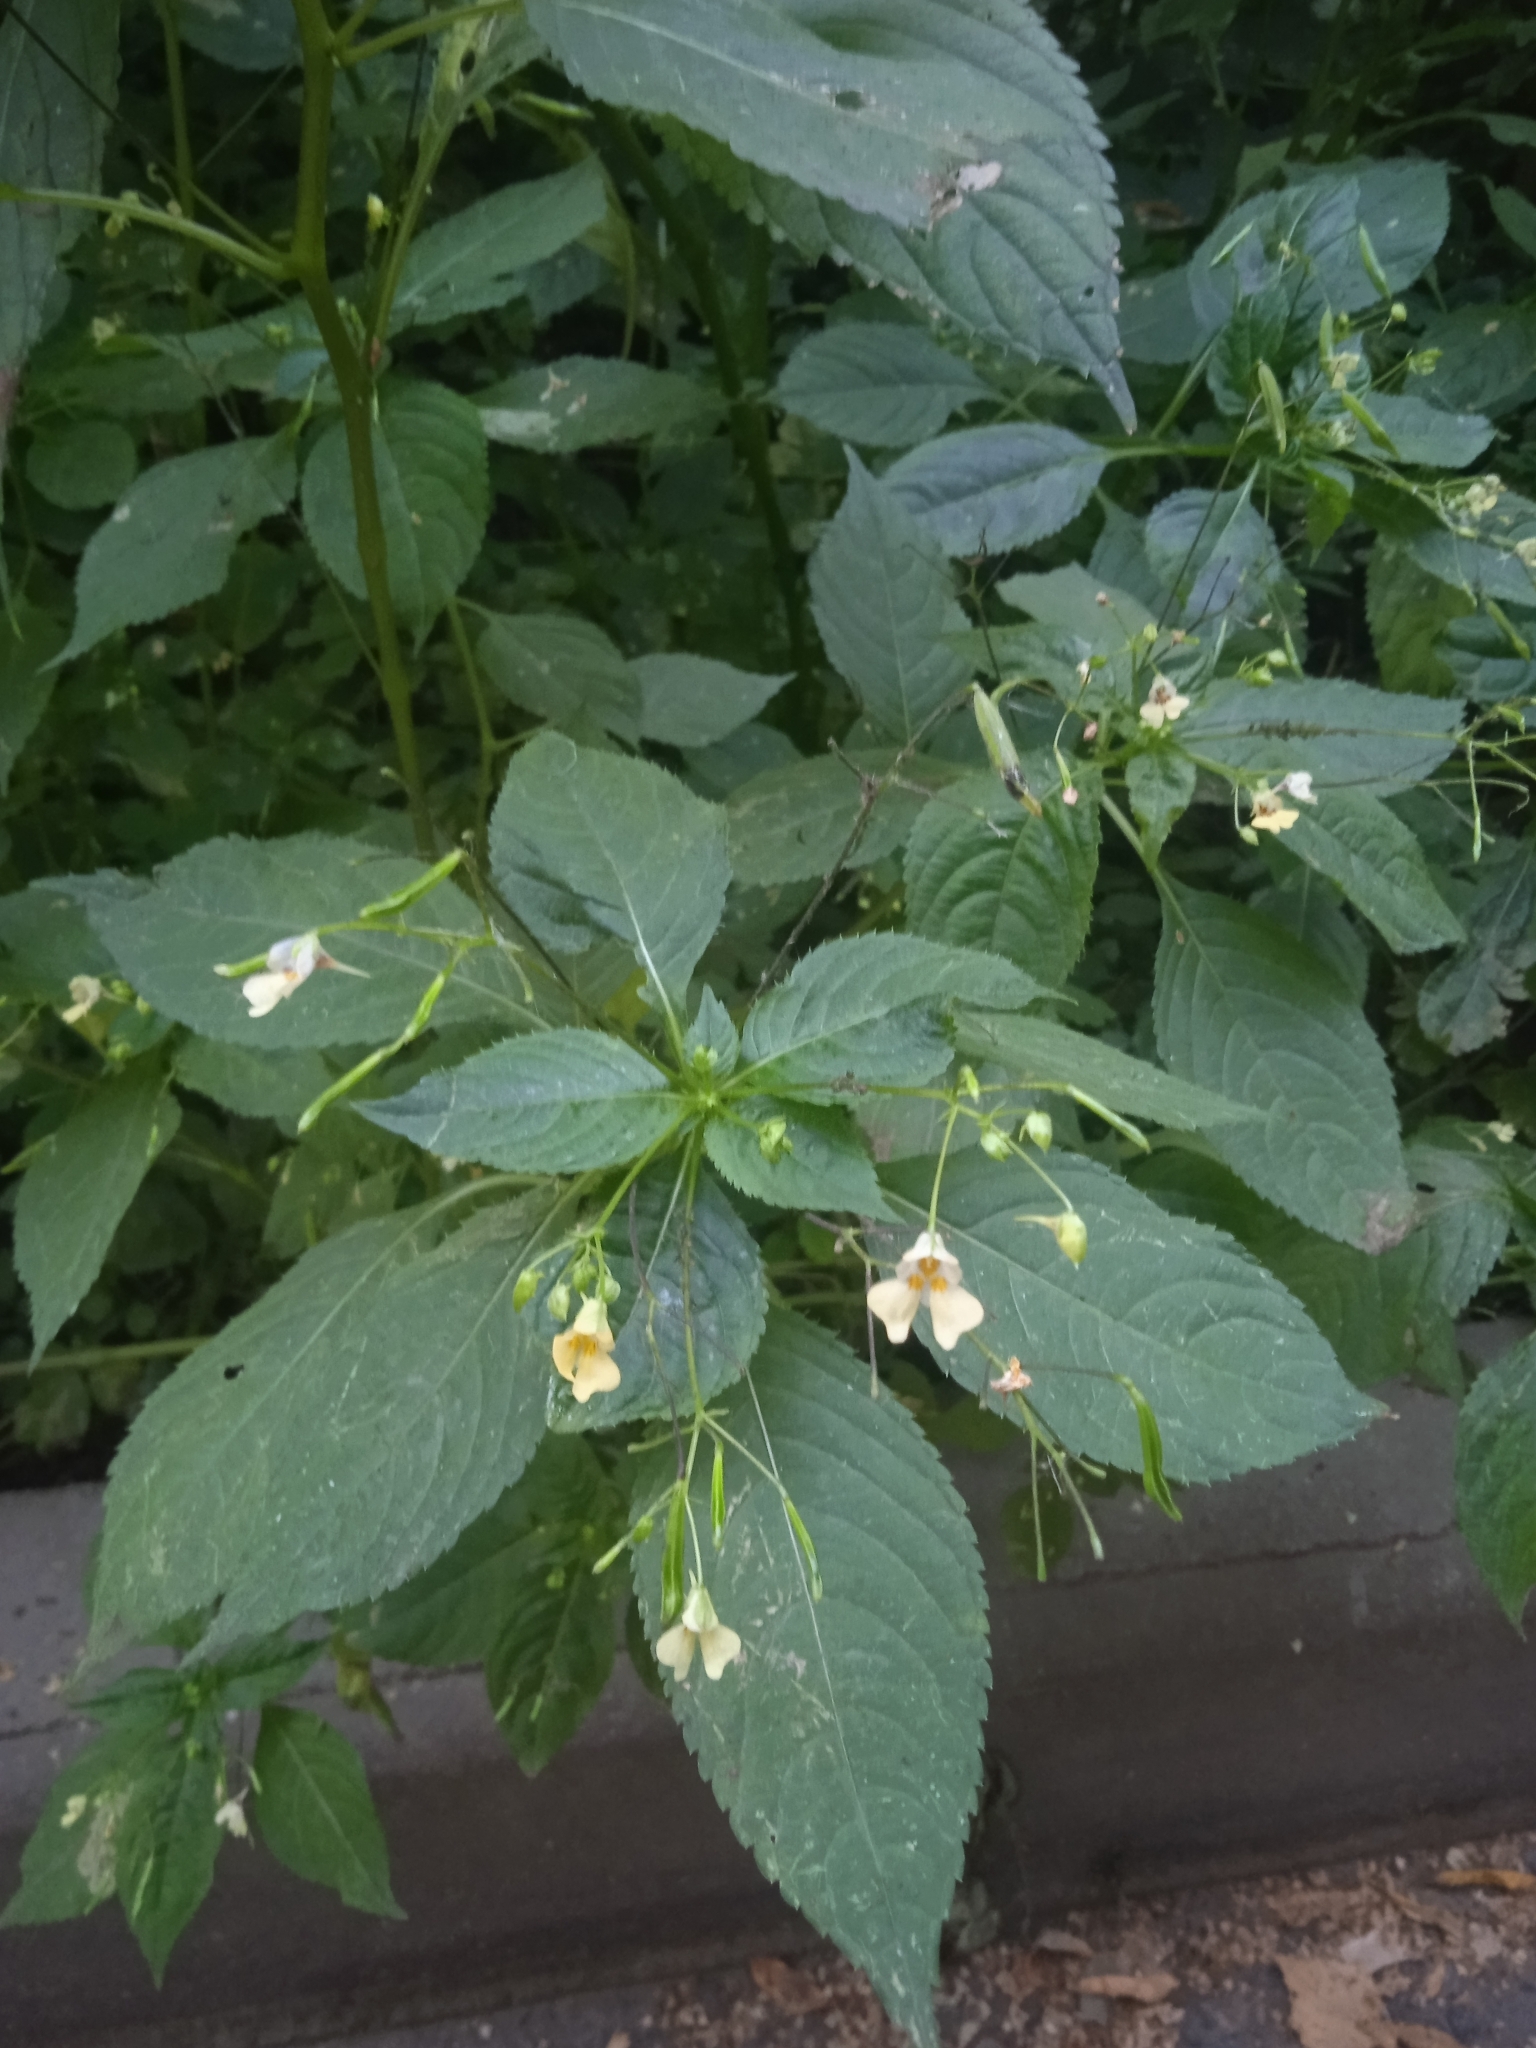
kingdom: Plantae
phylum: Tracheophyta
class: Magnoliopsida
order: Ericales
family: Balsaminaceae
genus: Impatiens
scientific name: Impatiens parviflora
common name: Small balsam
